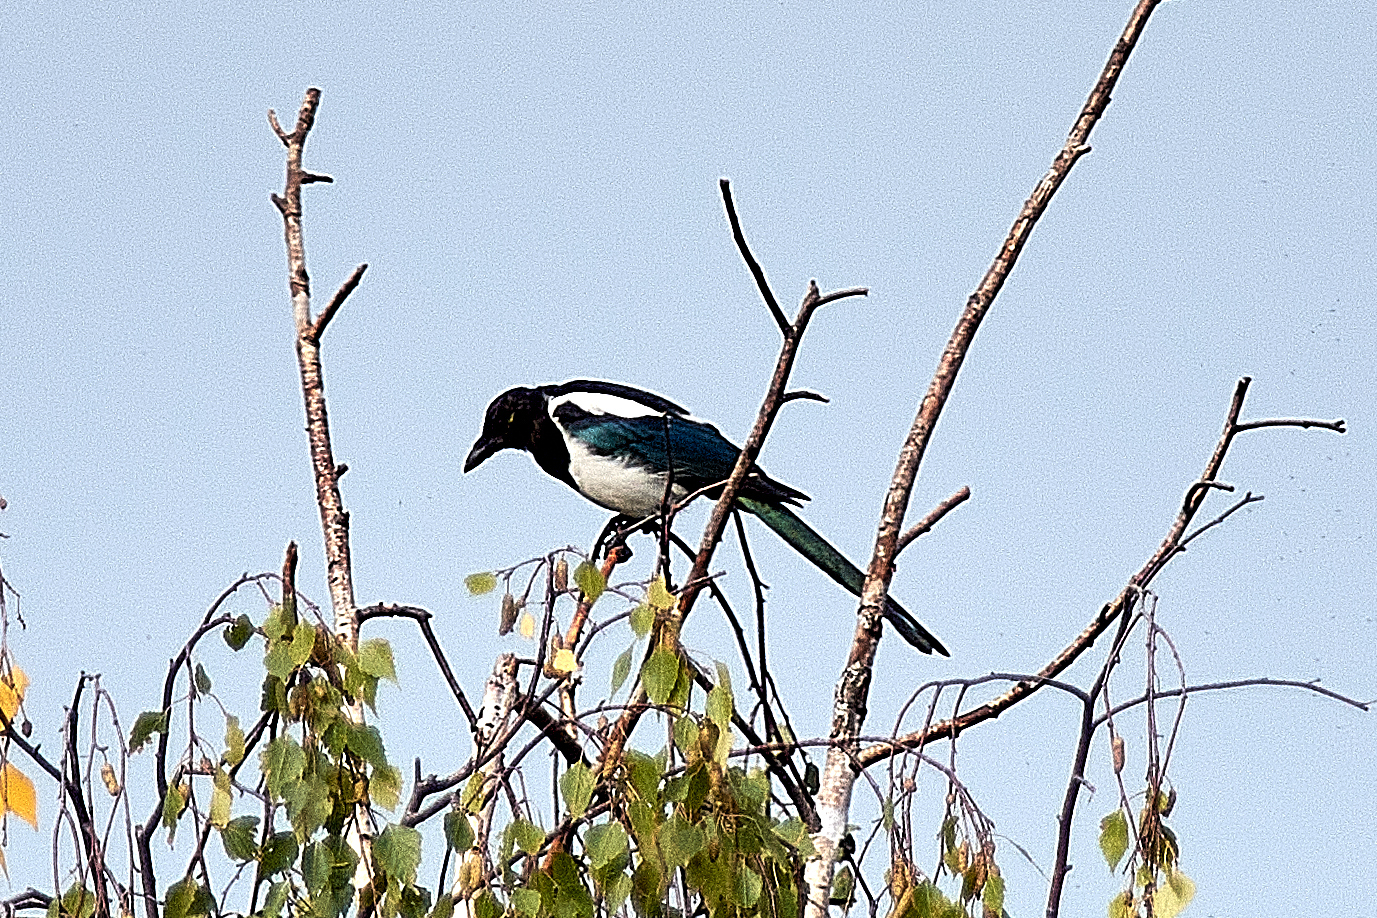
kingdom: Animalia
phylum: Chordata
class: Aves
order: Passeriformes
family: Corvidae
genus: Pica
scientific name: Pica pica
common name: Eurasian magpie
